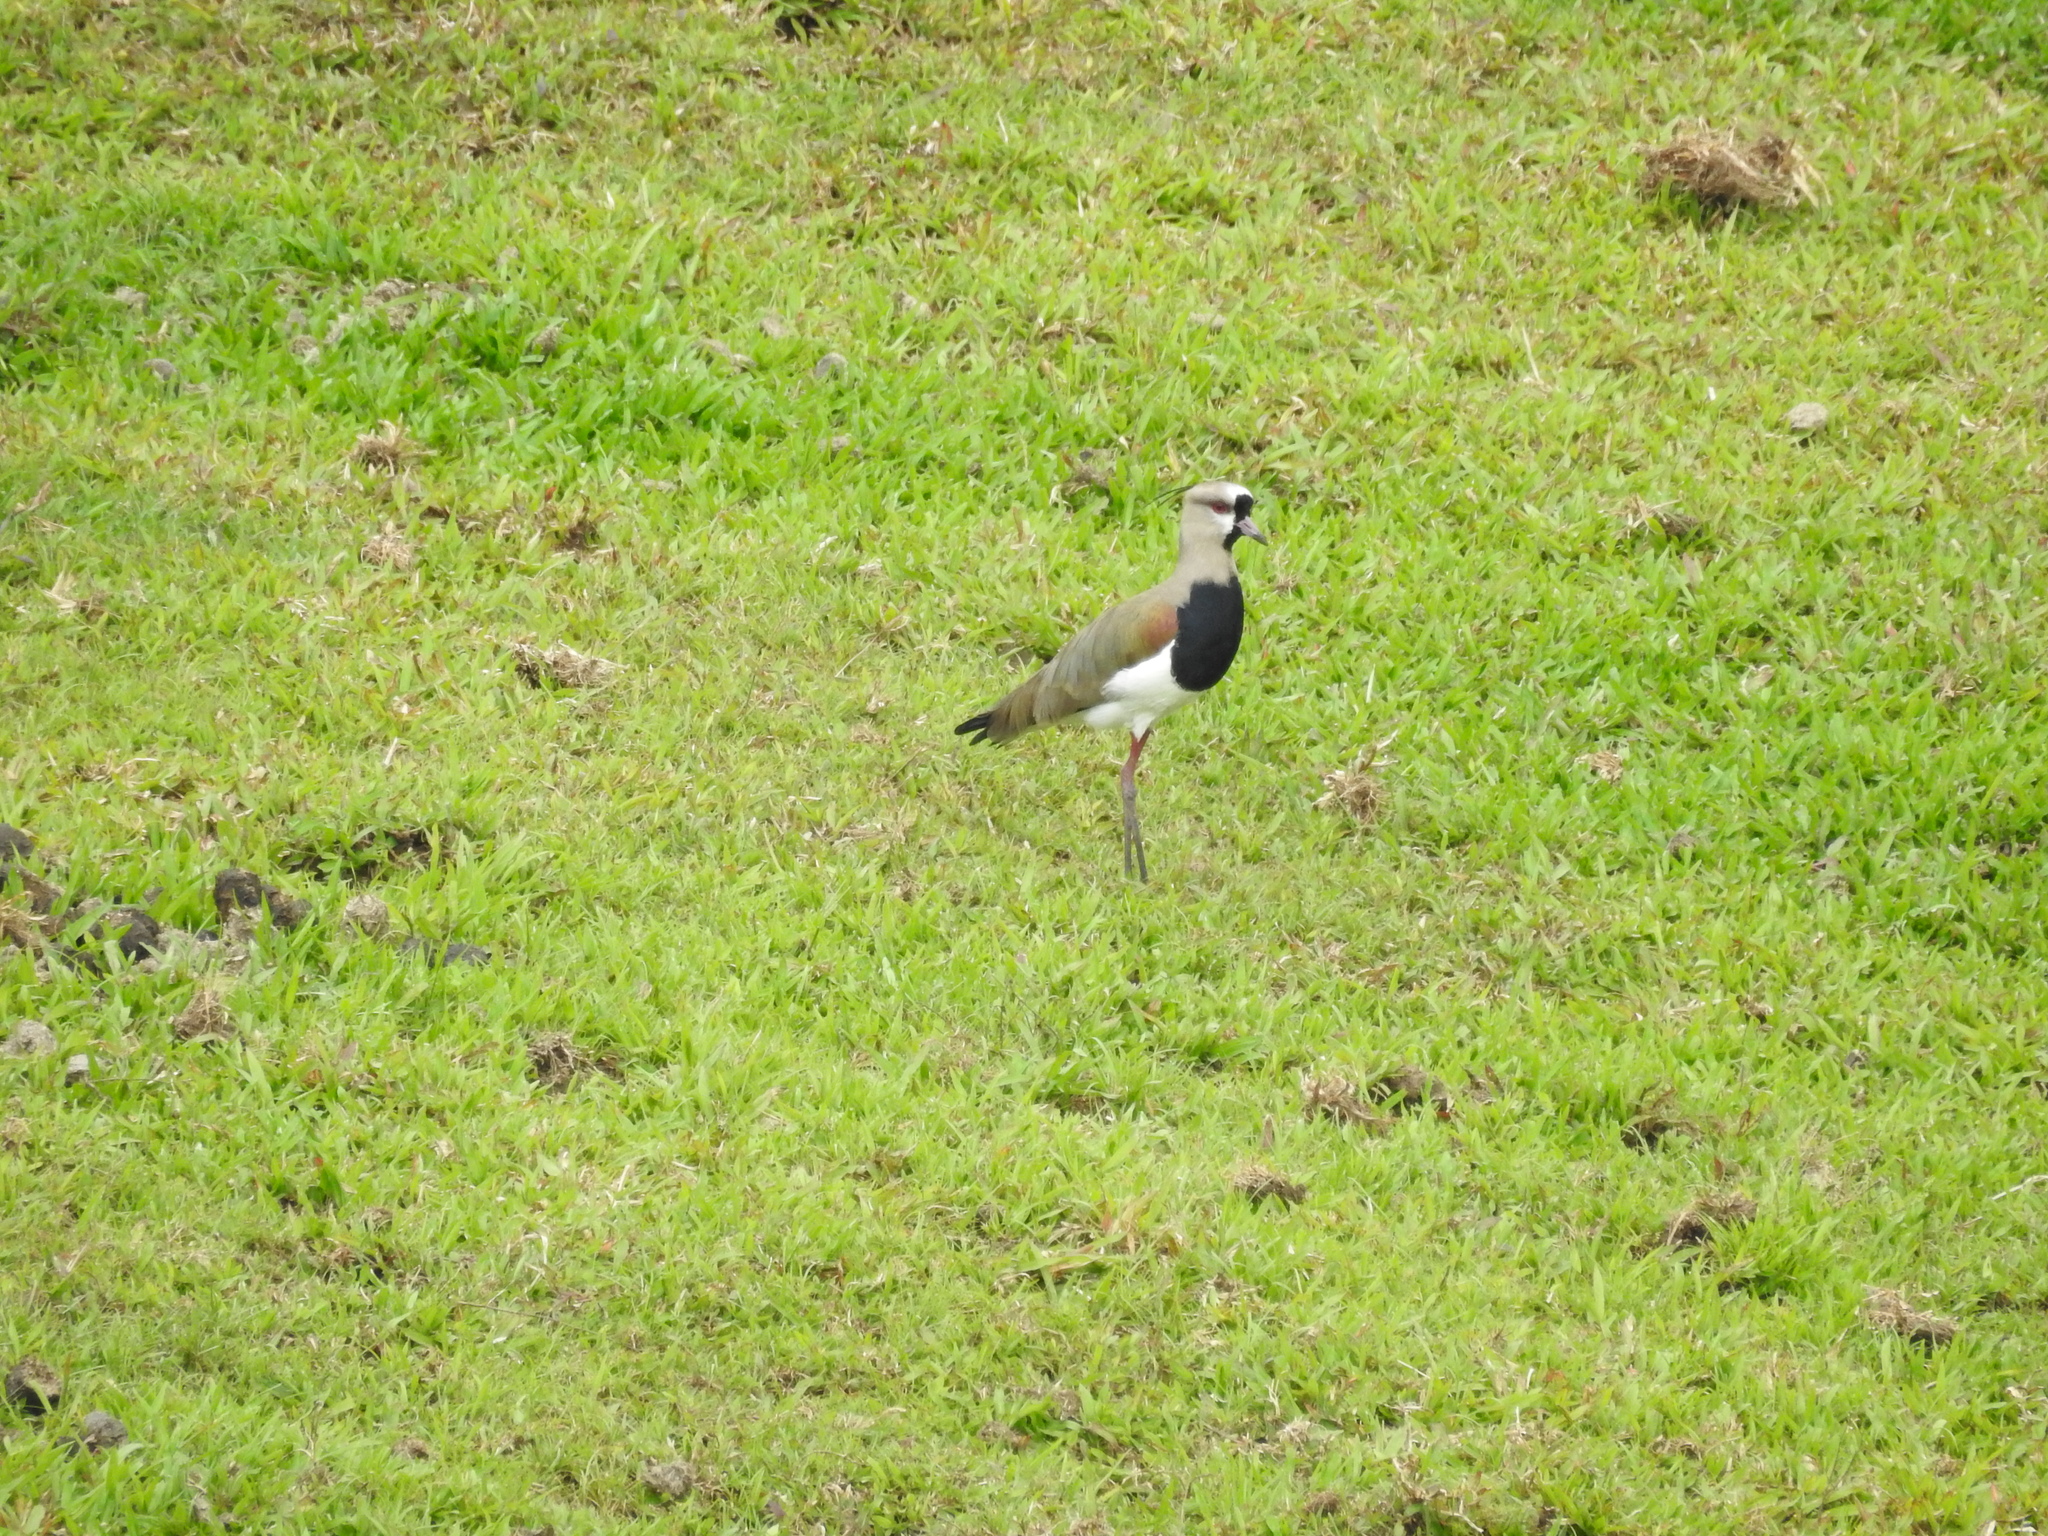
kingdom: Animalia
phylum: Chordata
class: Aves
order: Charadriiformes
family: Charadriidae
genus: Vanellus
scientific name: Vanellus chilensis
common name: Southern lapwing
